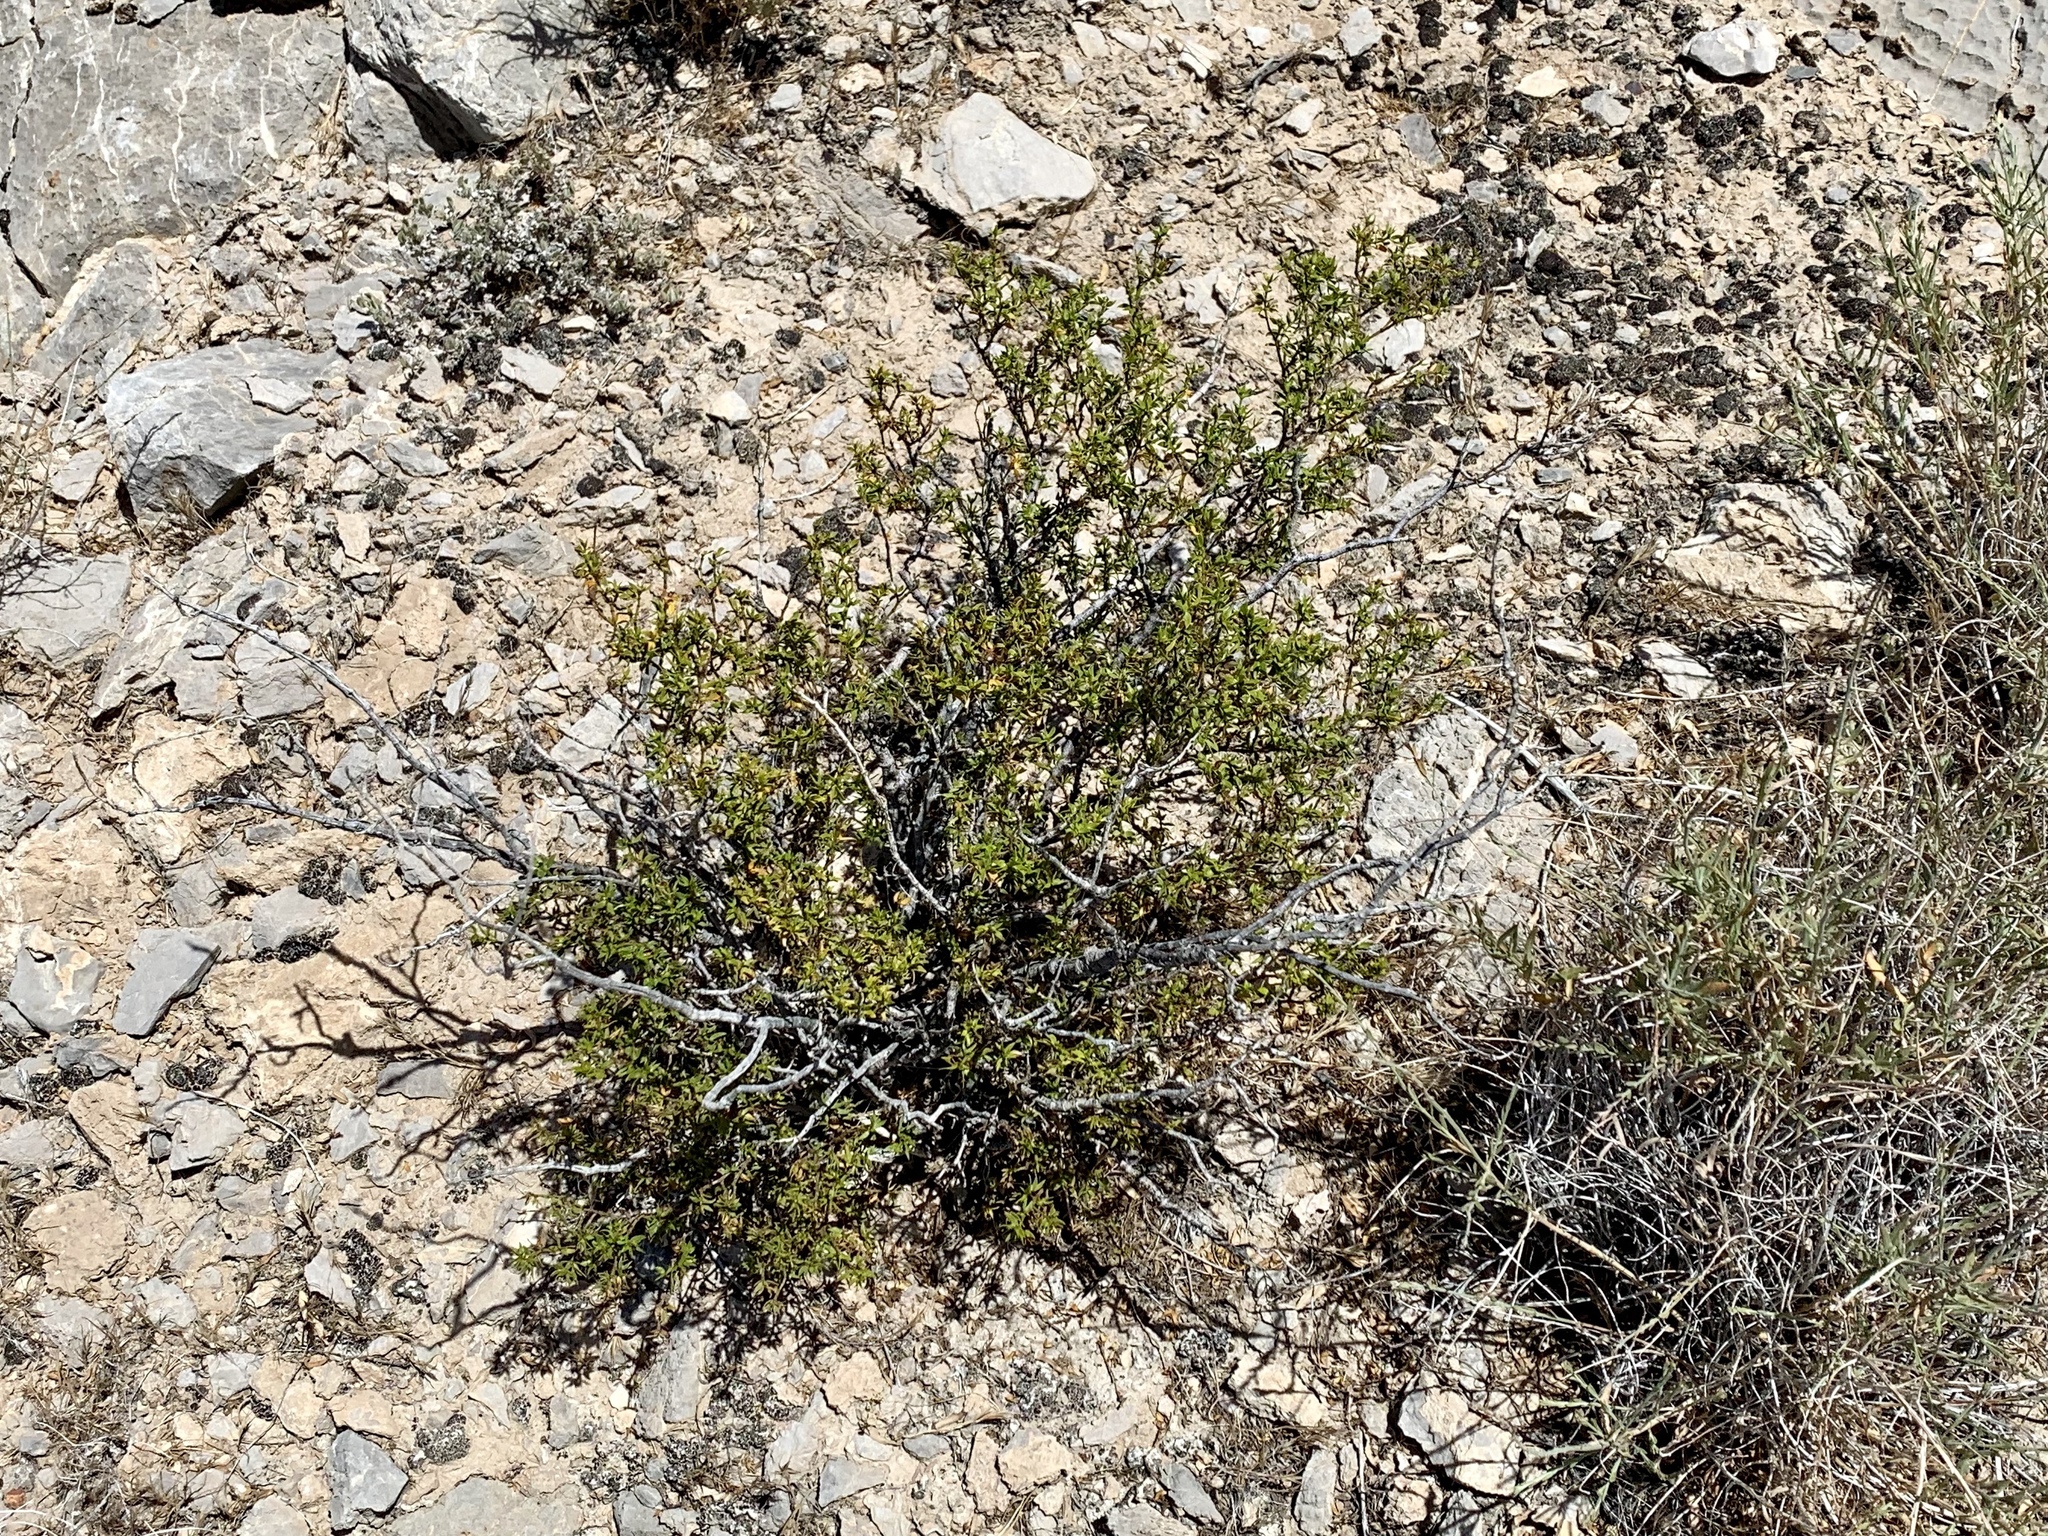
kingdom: Plantae
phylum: Tracheophyta
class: Magnoliopsida
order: Zygophyllales
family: Zygophyllaceae
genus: Larrea
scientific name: Larrea tridentata
